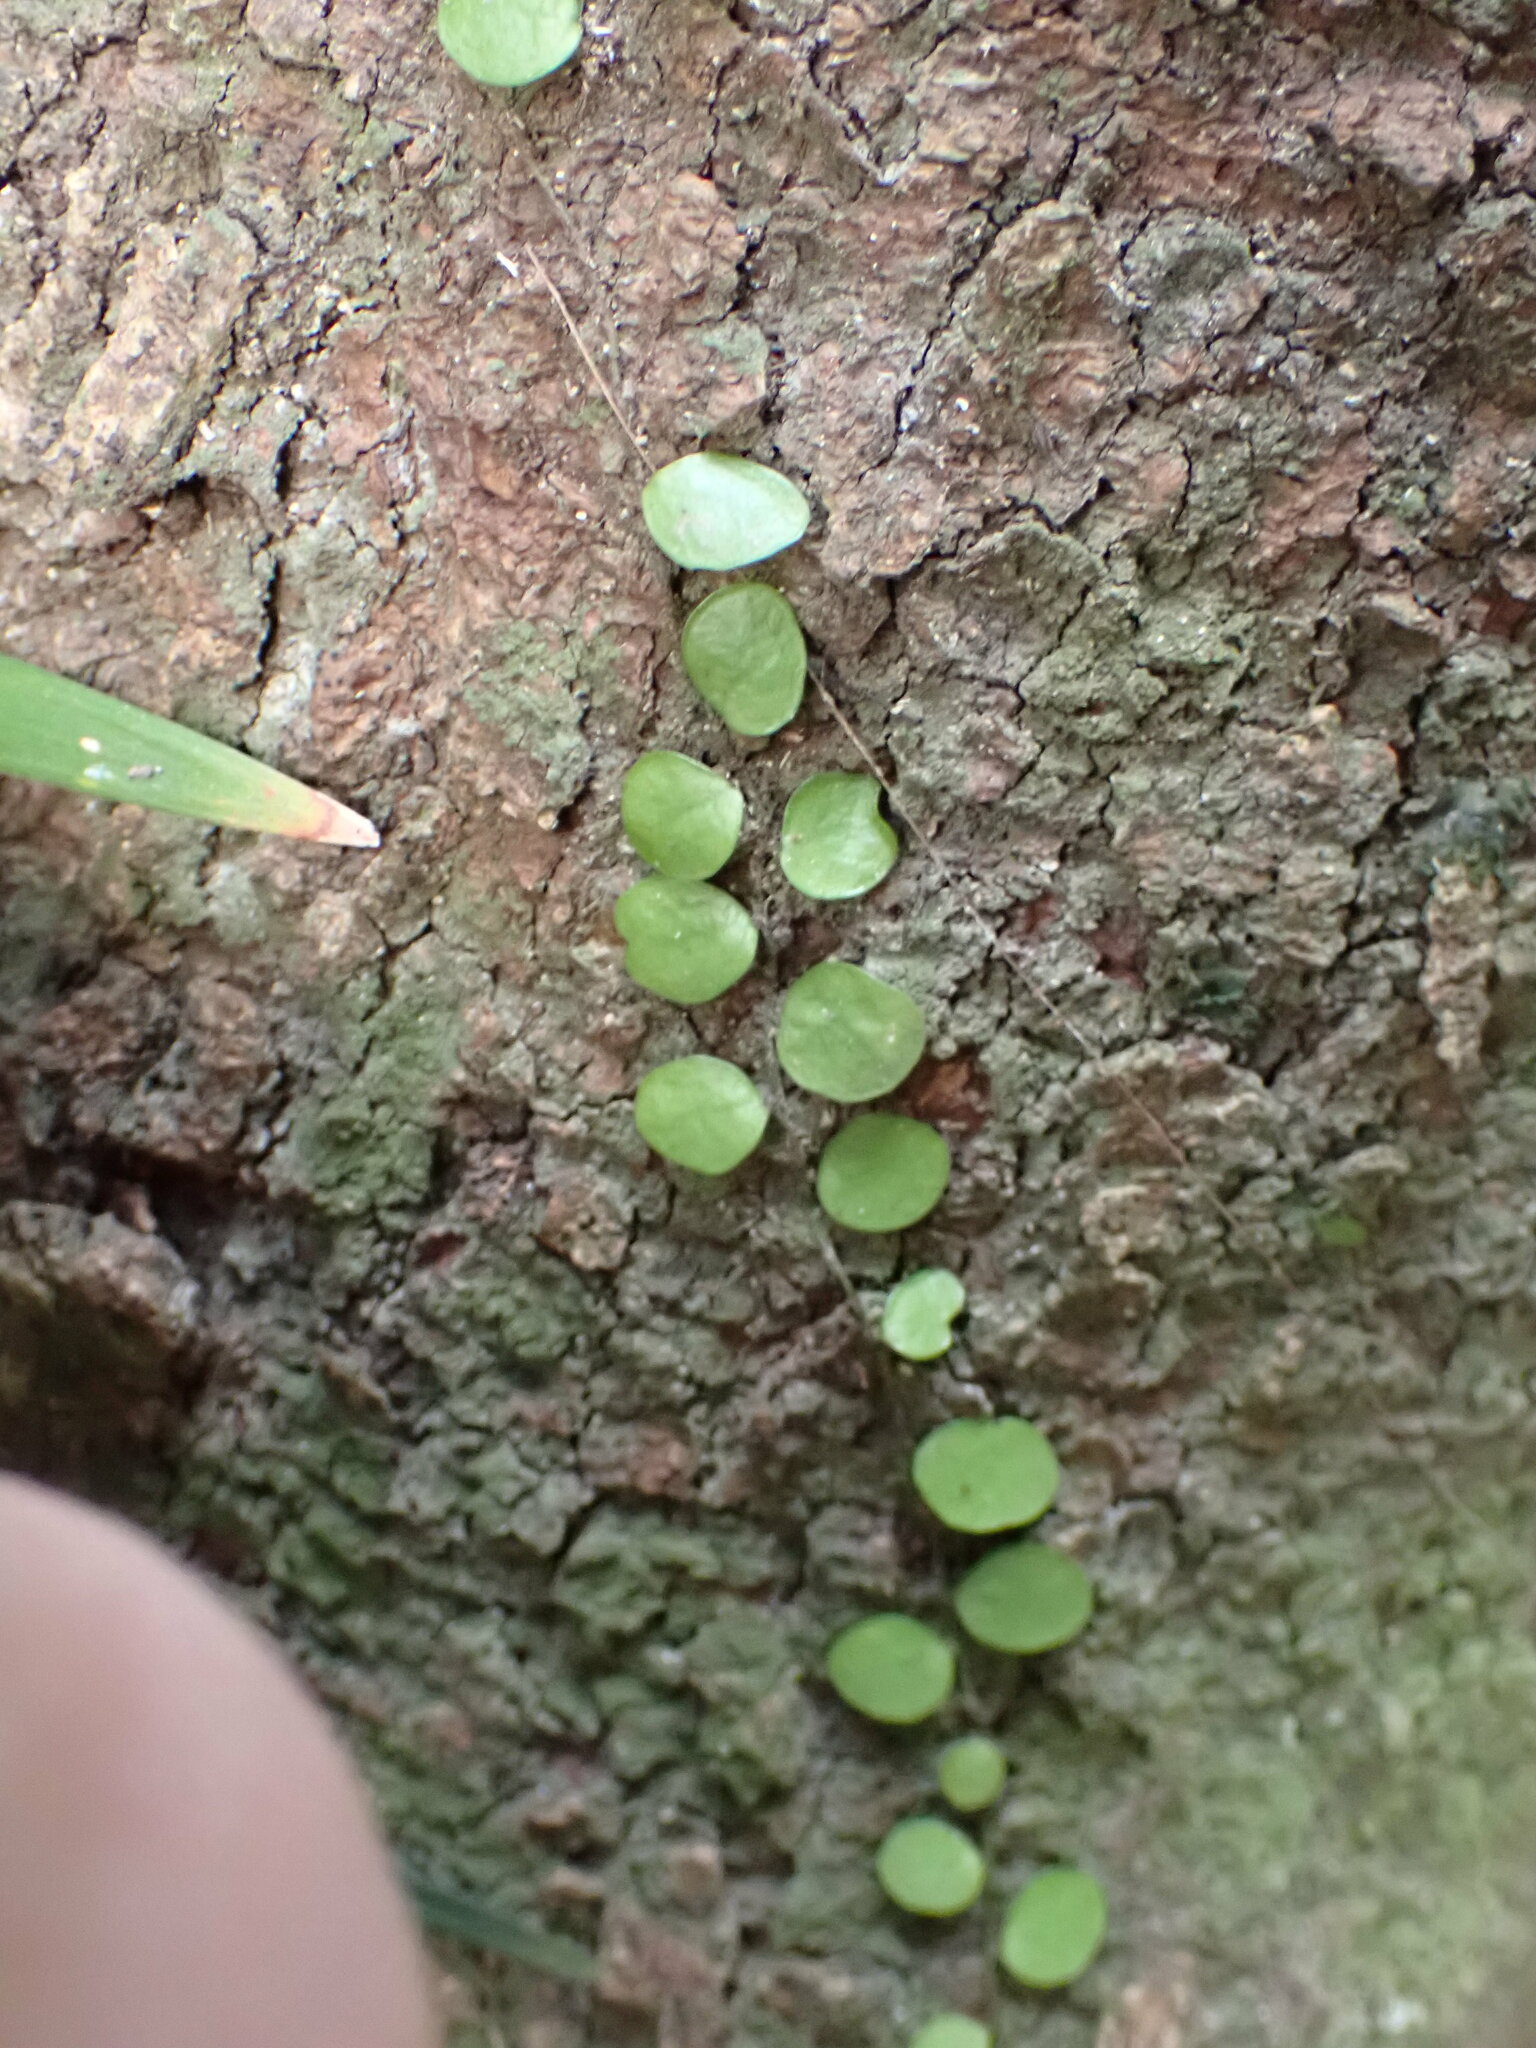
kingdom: Plantae
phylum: Tracheophyta
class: Polypodiopsida
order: Polypodiales
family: Polypodiaceae
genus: Lepisorus
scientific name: Lepisorus microphyllus
